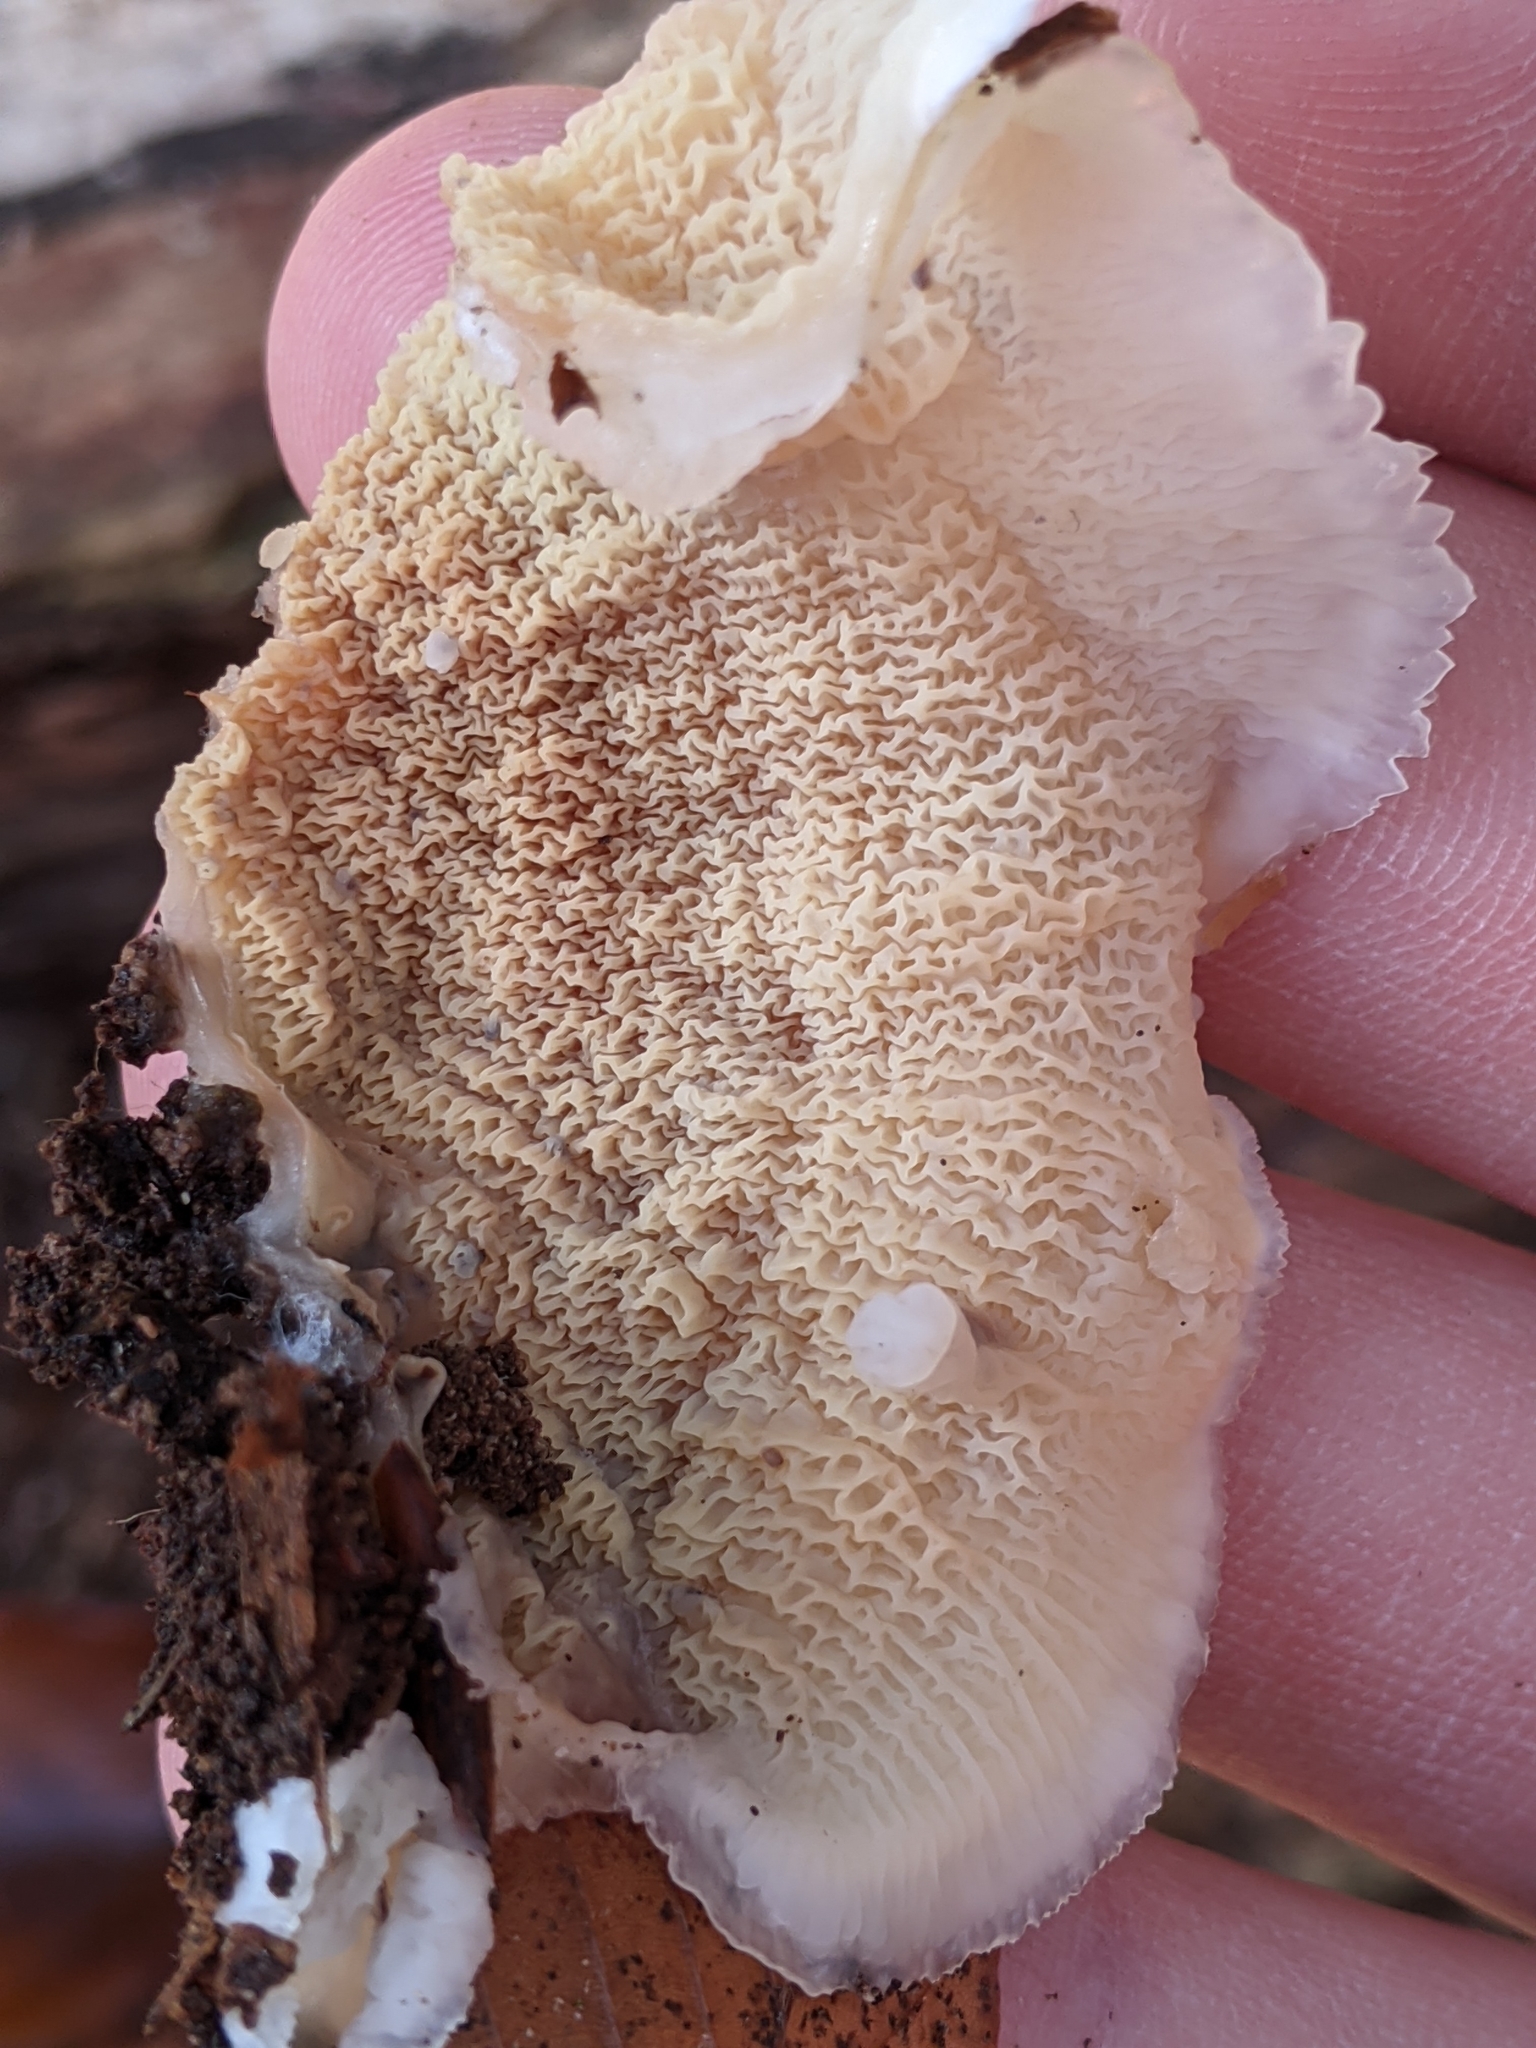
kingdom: Fungi
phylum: Basidiomycota
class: Agaricomycetes
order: Polyporales
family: Meruliaceae
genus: Phlebia
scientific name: Phlebia tremellosa
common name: Jelly rot
